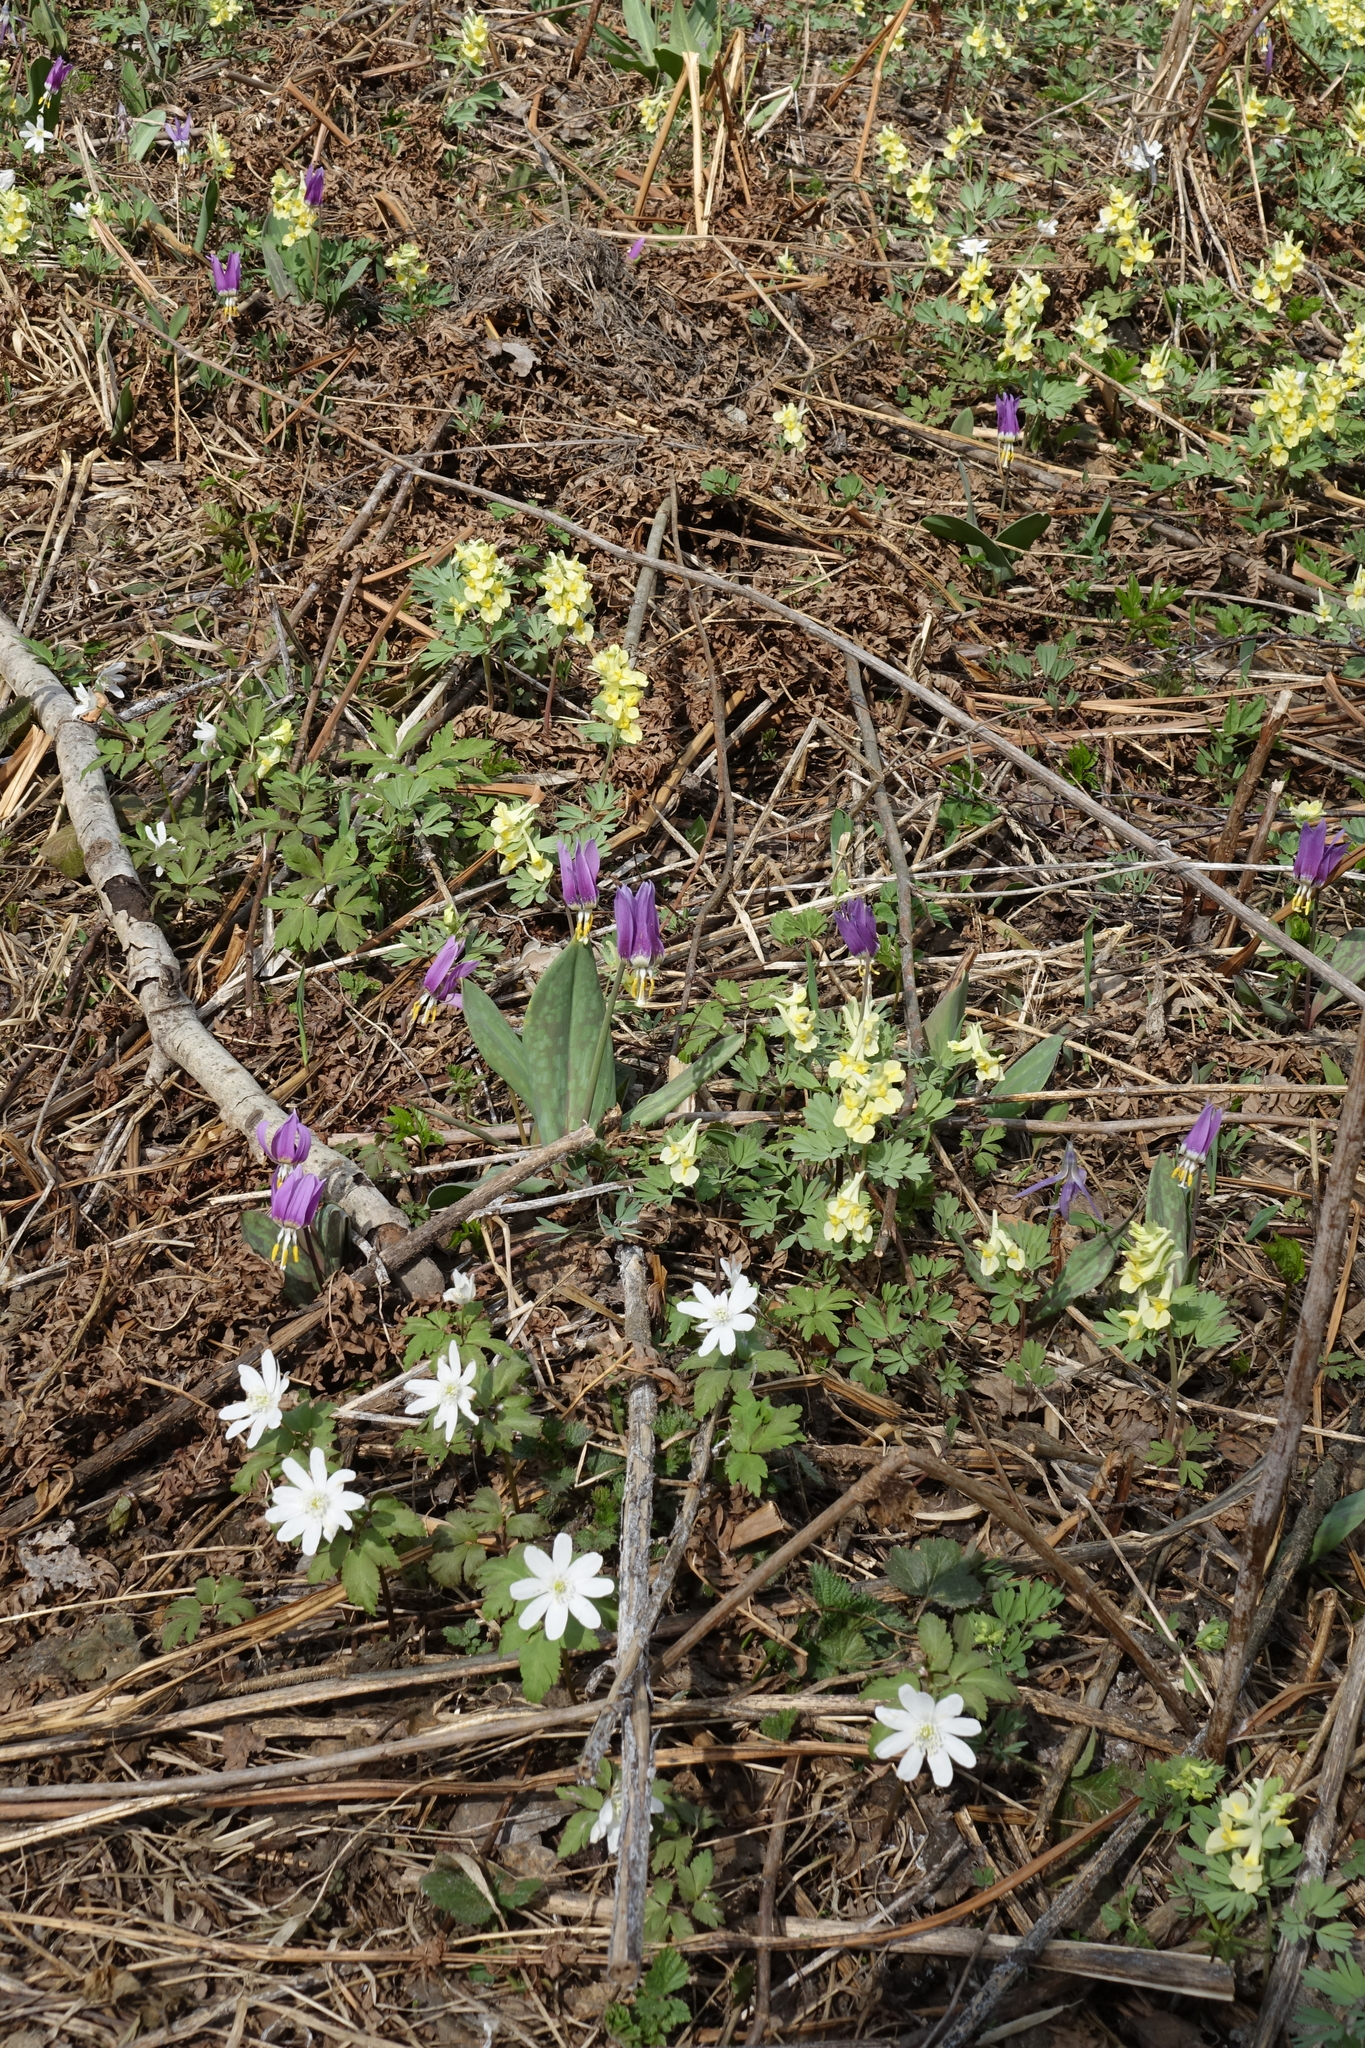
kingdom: Plantae
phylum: Tracheophyta
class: Liliopsida
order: Liliales
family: Liliaceae
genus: Erythronium
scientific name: Erythronium sibiricum
